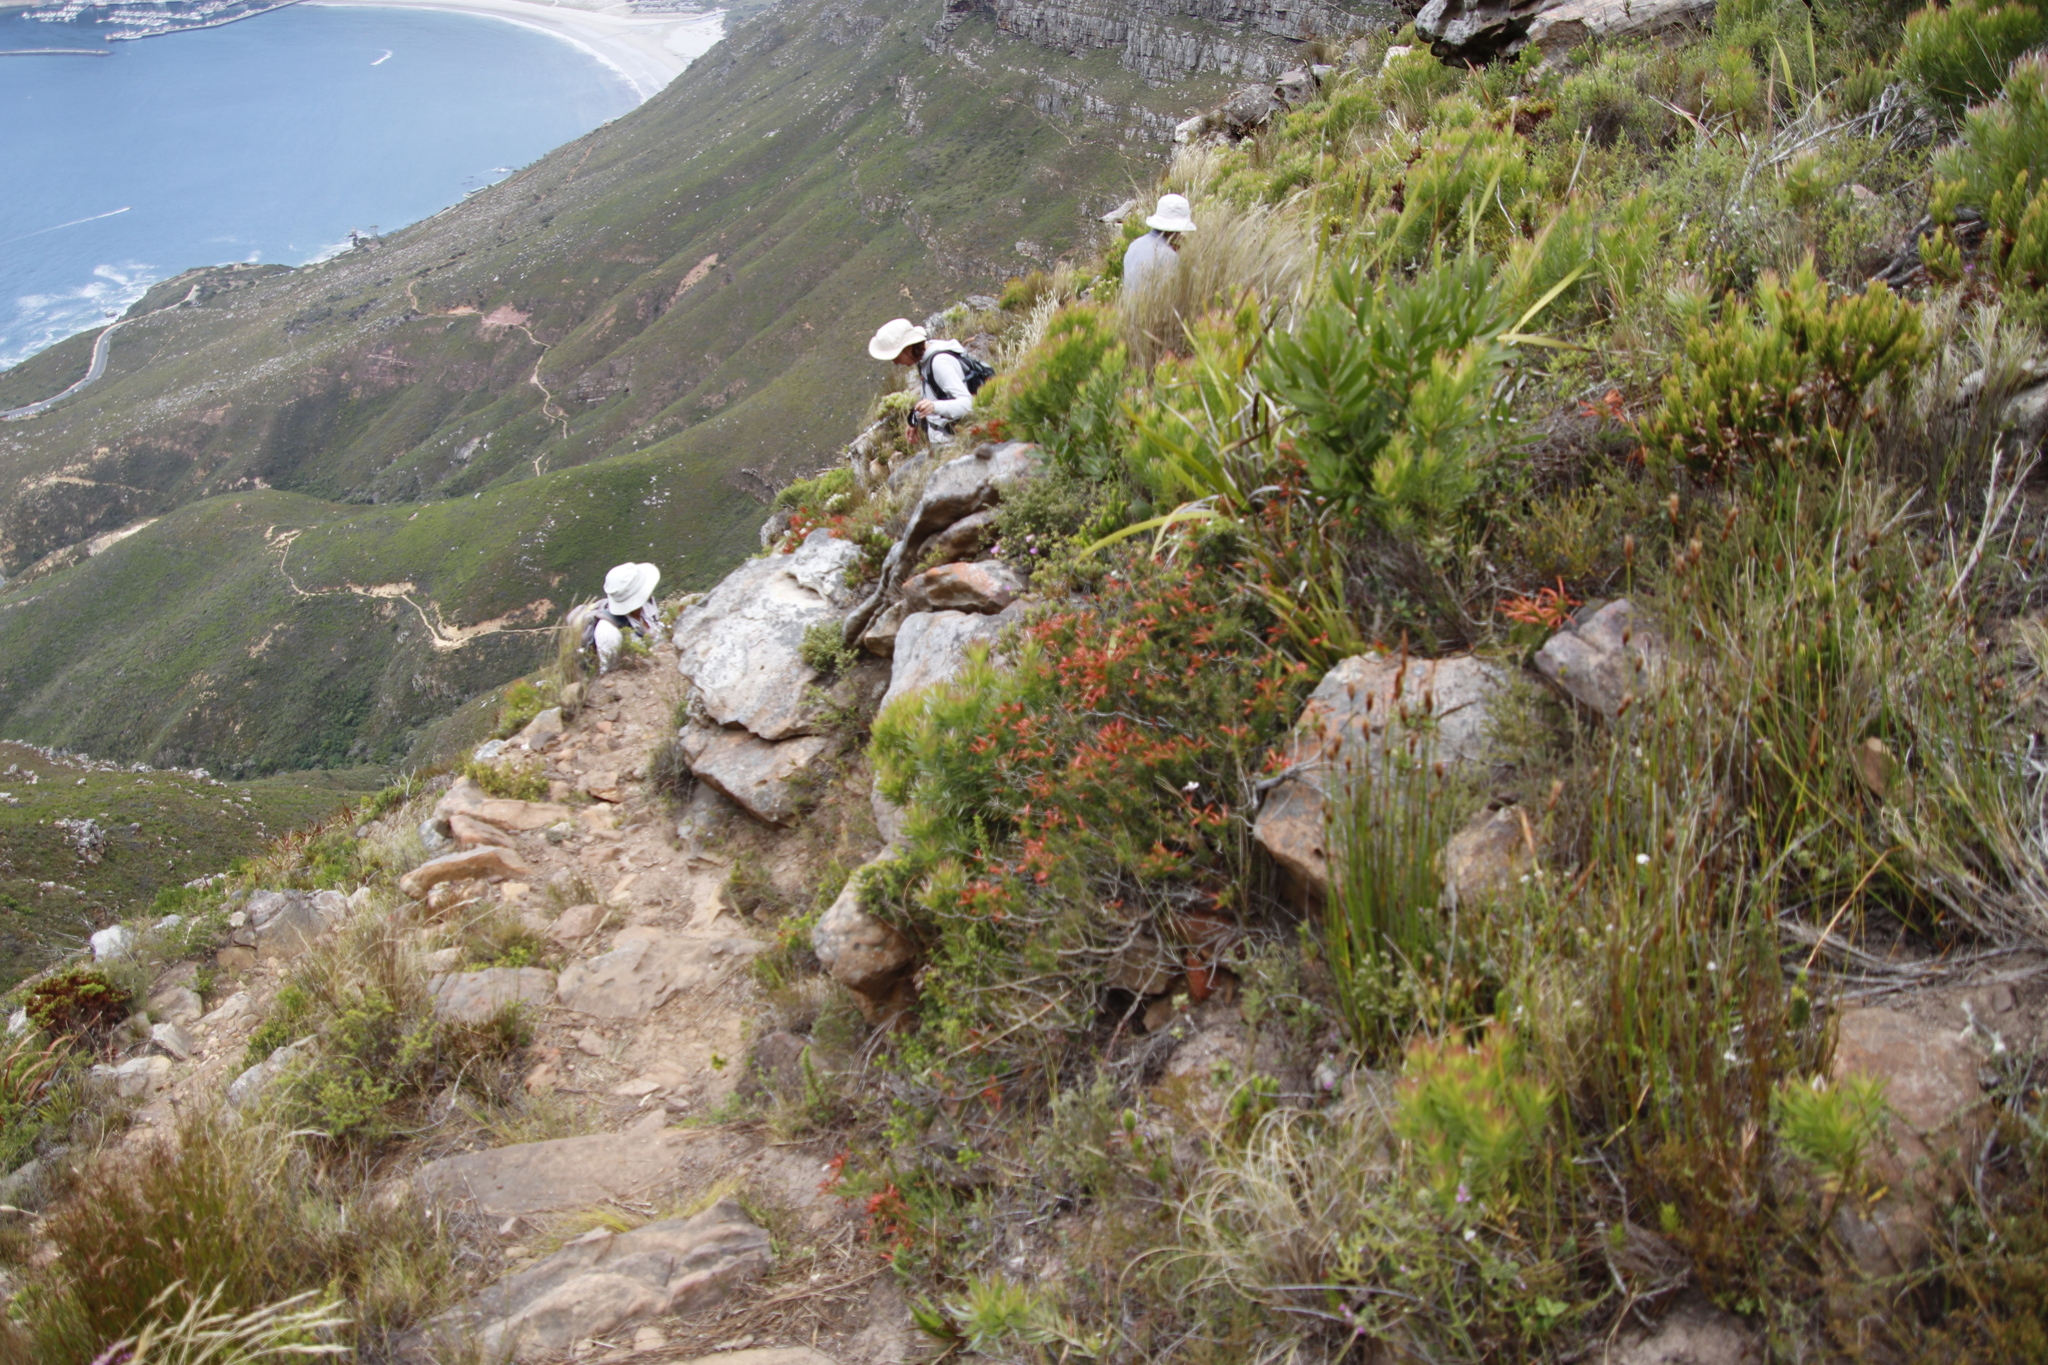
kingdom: Plantae
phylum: Tracheophyta
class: Magnoliopsida
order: Ericales
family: Ericaceae
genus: Erica
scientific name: Erica nevillei
